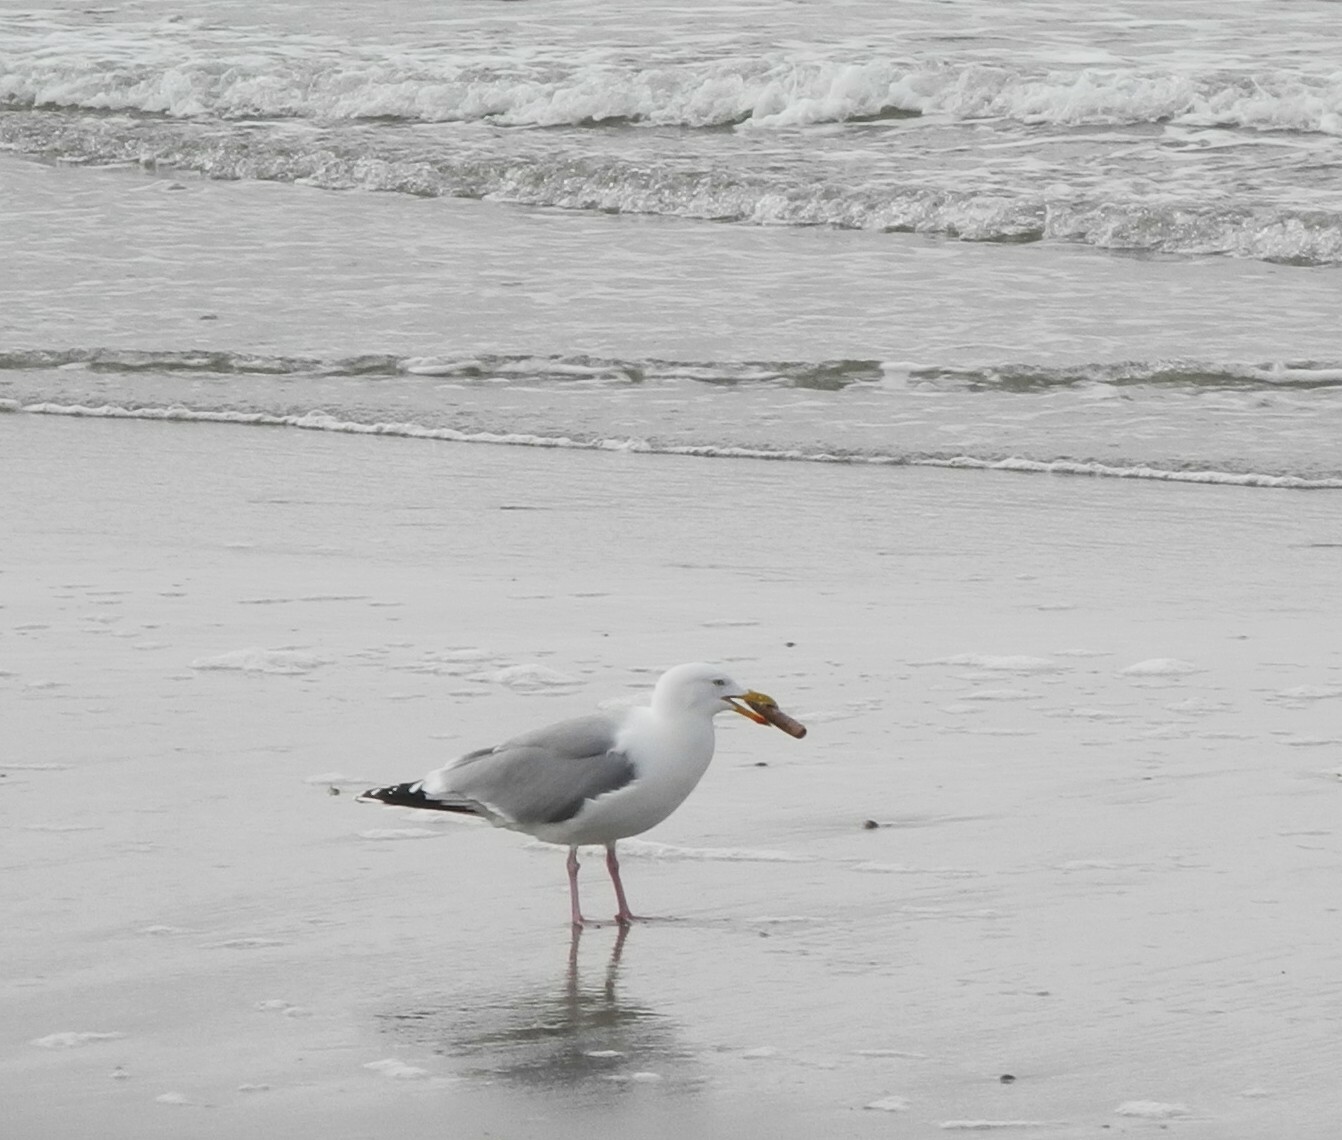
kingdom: Animalia
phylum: Chordata
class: Aves
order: Charadriiformes
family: Laridae
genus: Larus
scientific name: Larus argentatus
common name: Herring gull
